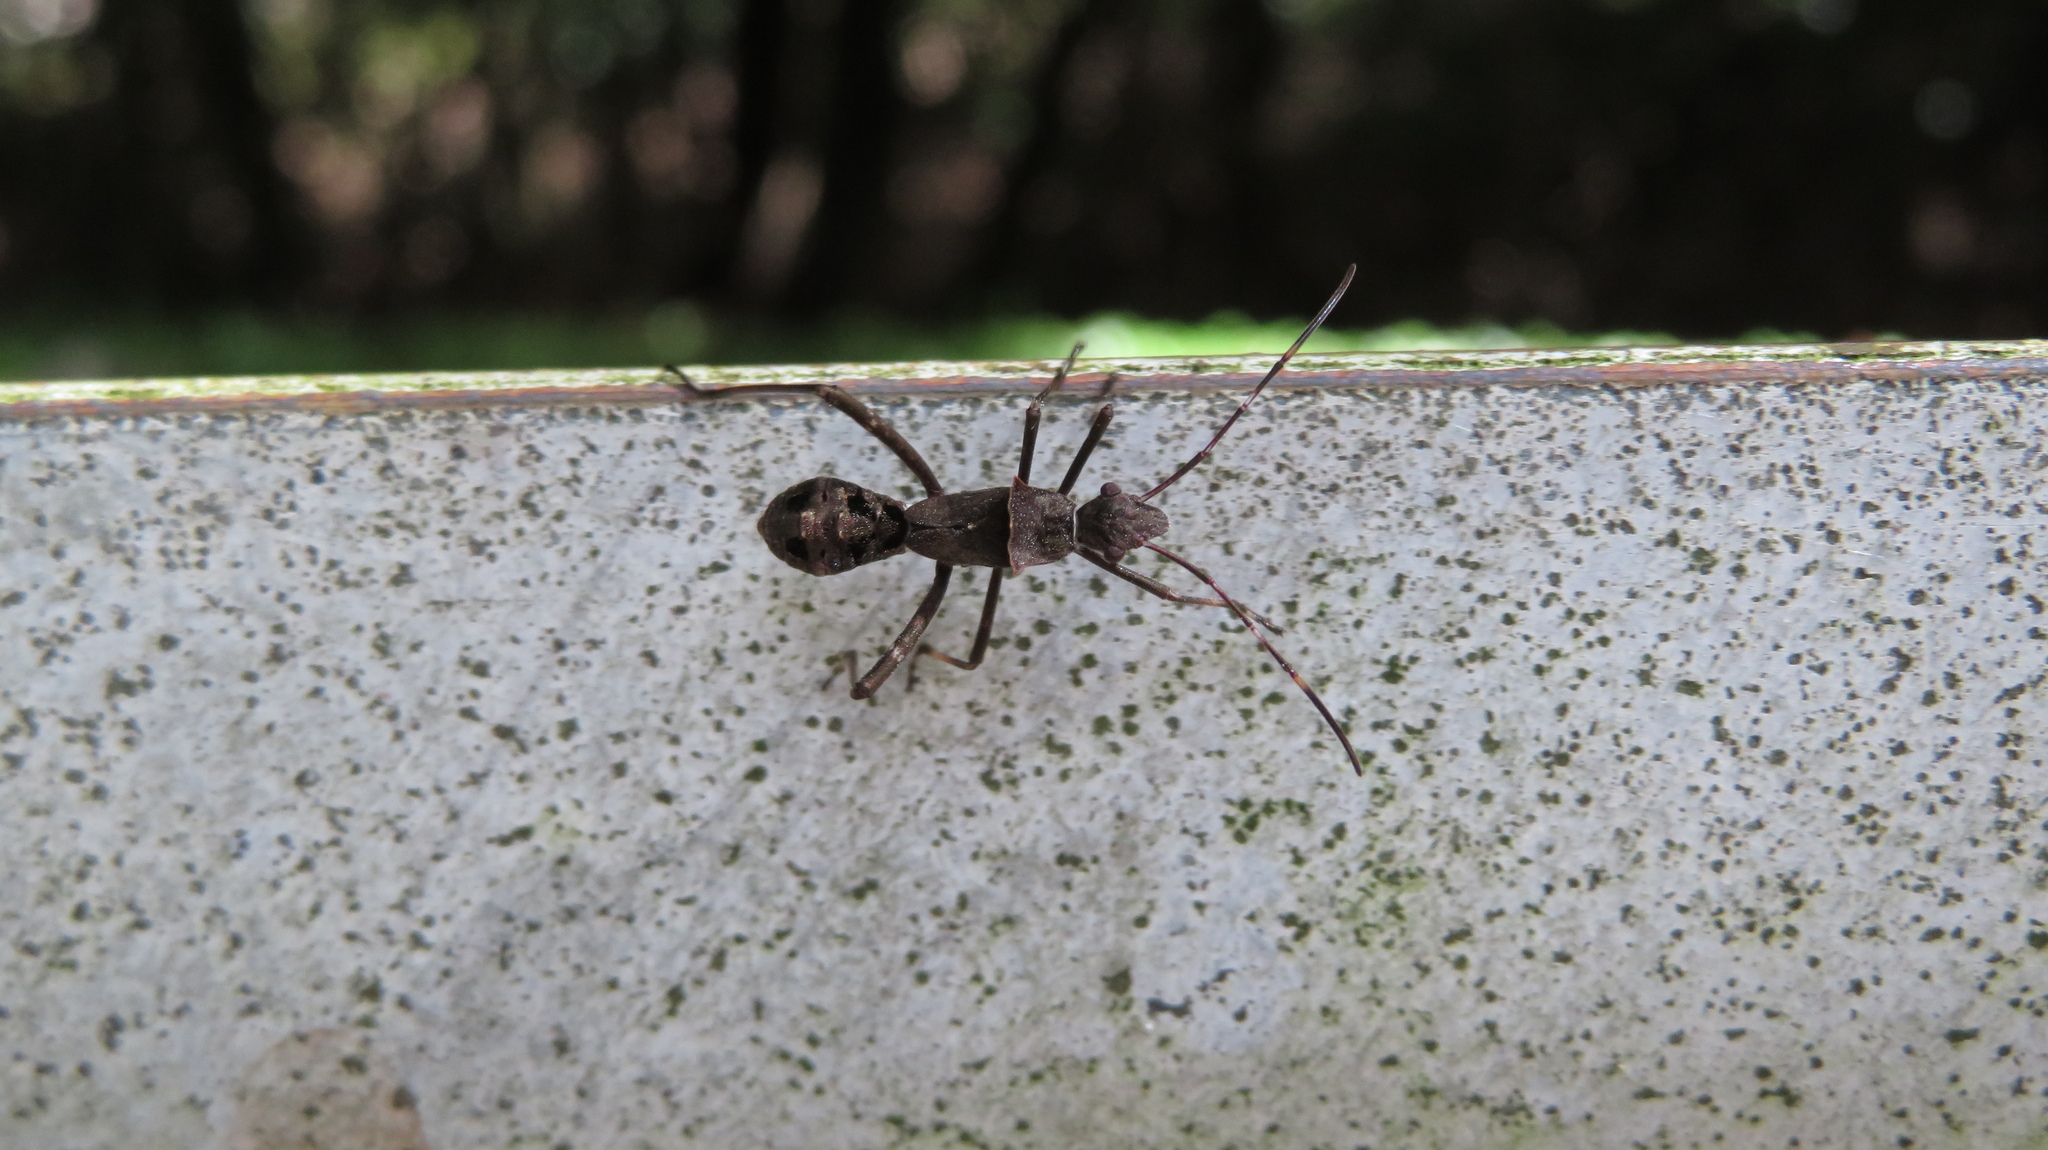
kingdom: Animalia
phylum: Arthropoda
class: Insecta
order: Hemiptera
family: Alydidae
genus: Riptortus
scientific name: Riptortus pedestris
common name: Bean bug
